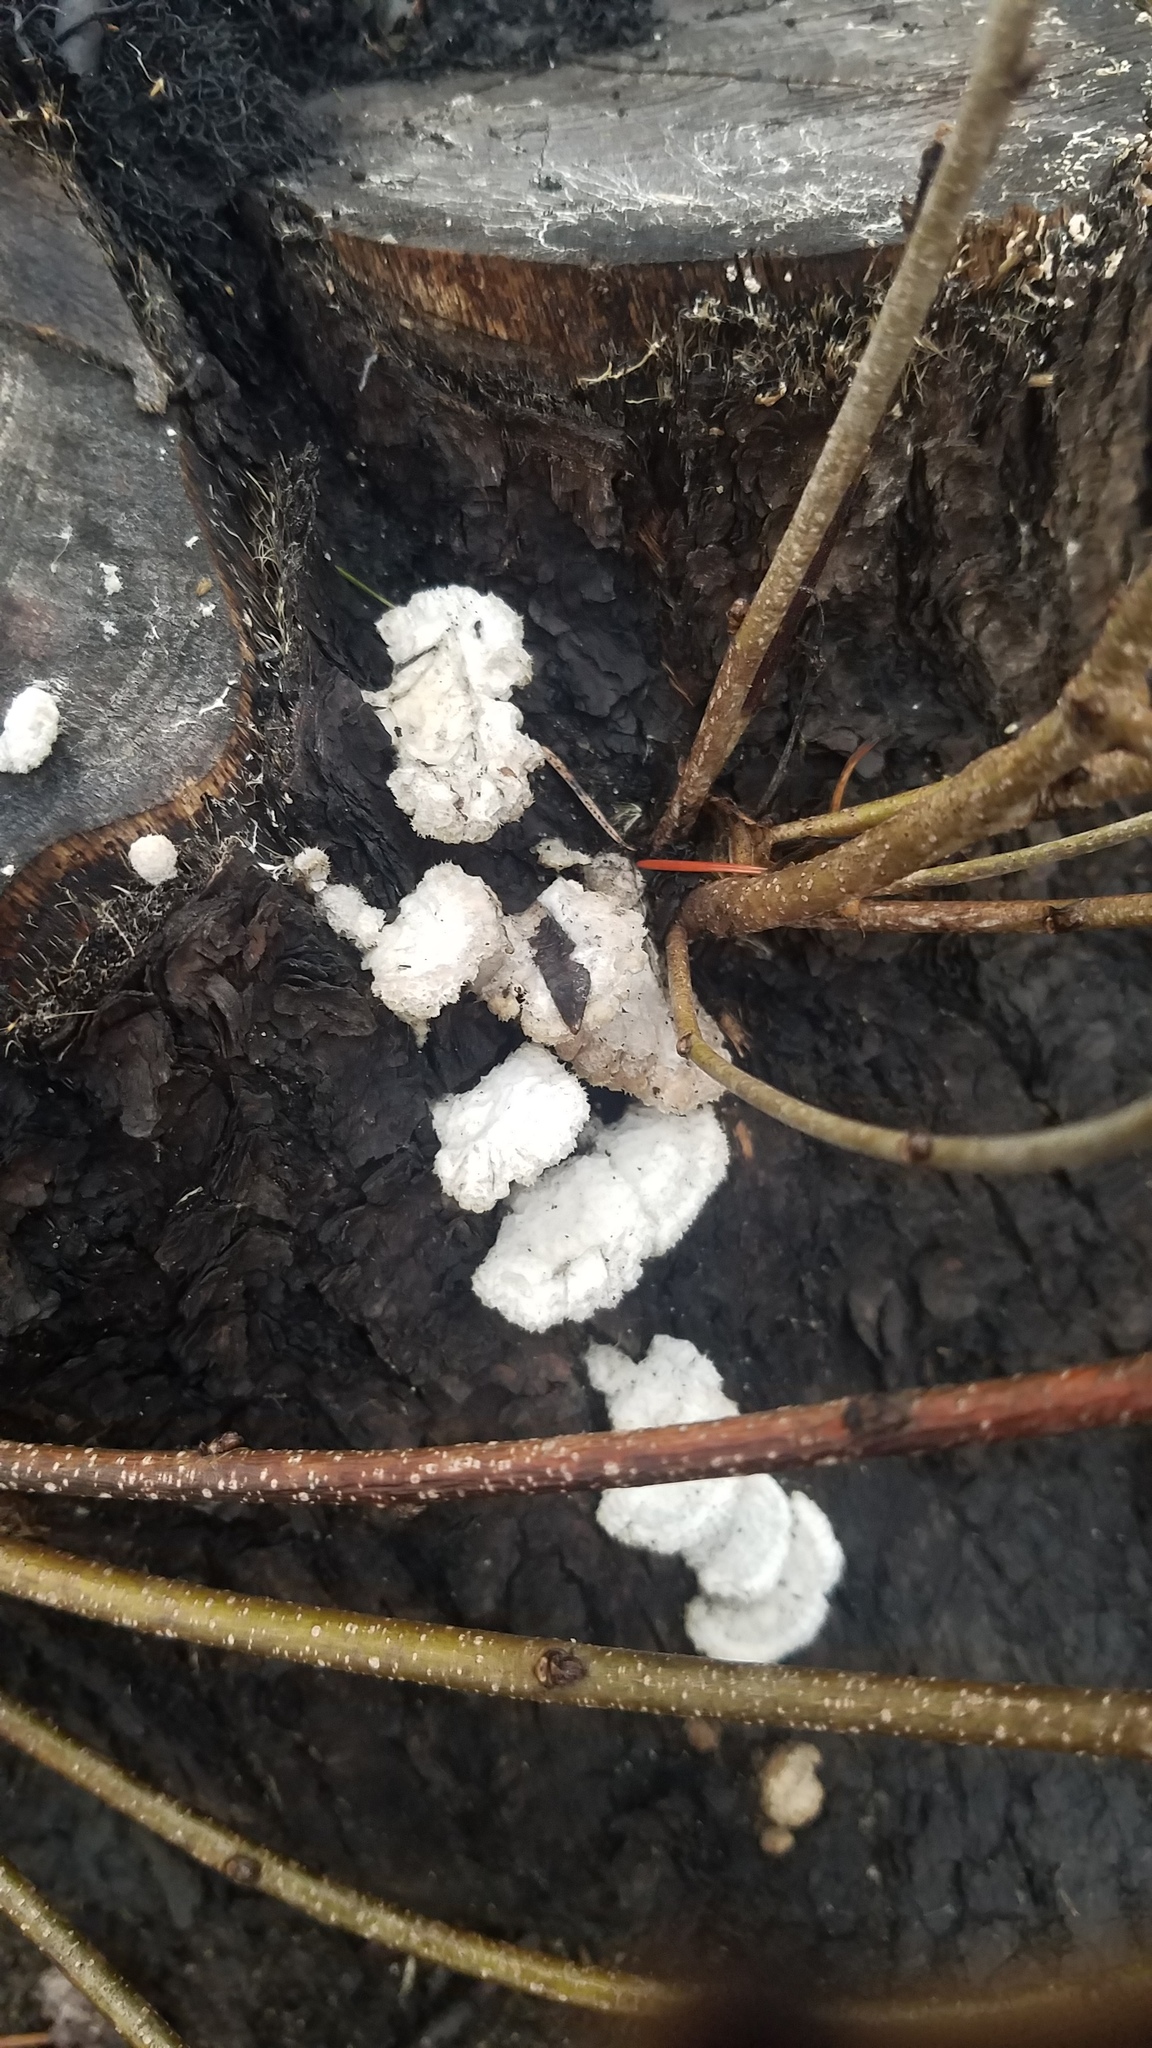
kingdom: Fungi
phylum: Basidiomycota
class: Agaricomycetes
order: Agaricales
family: Schizophyllaceae
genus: Schizophyllum
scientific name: Schizophyllum commune
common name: Common porecrust
